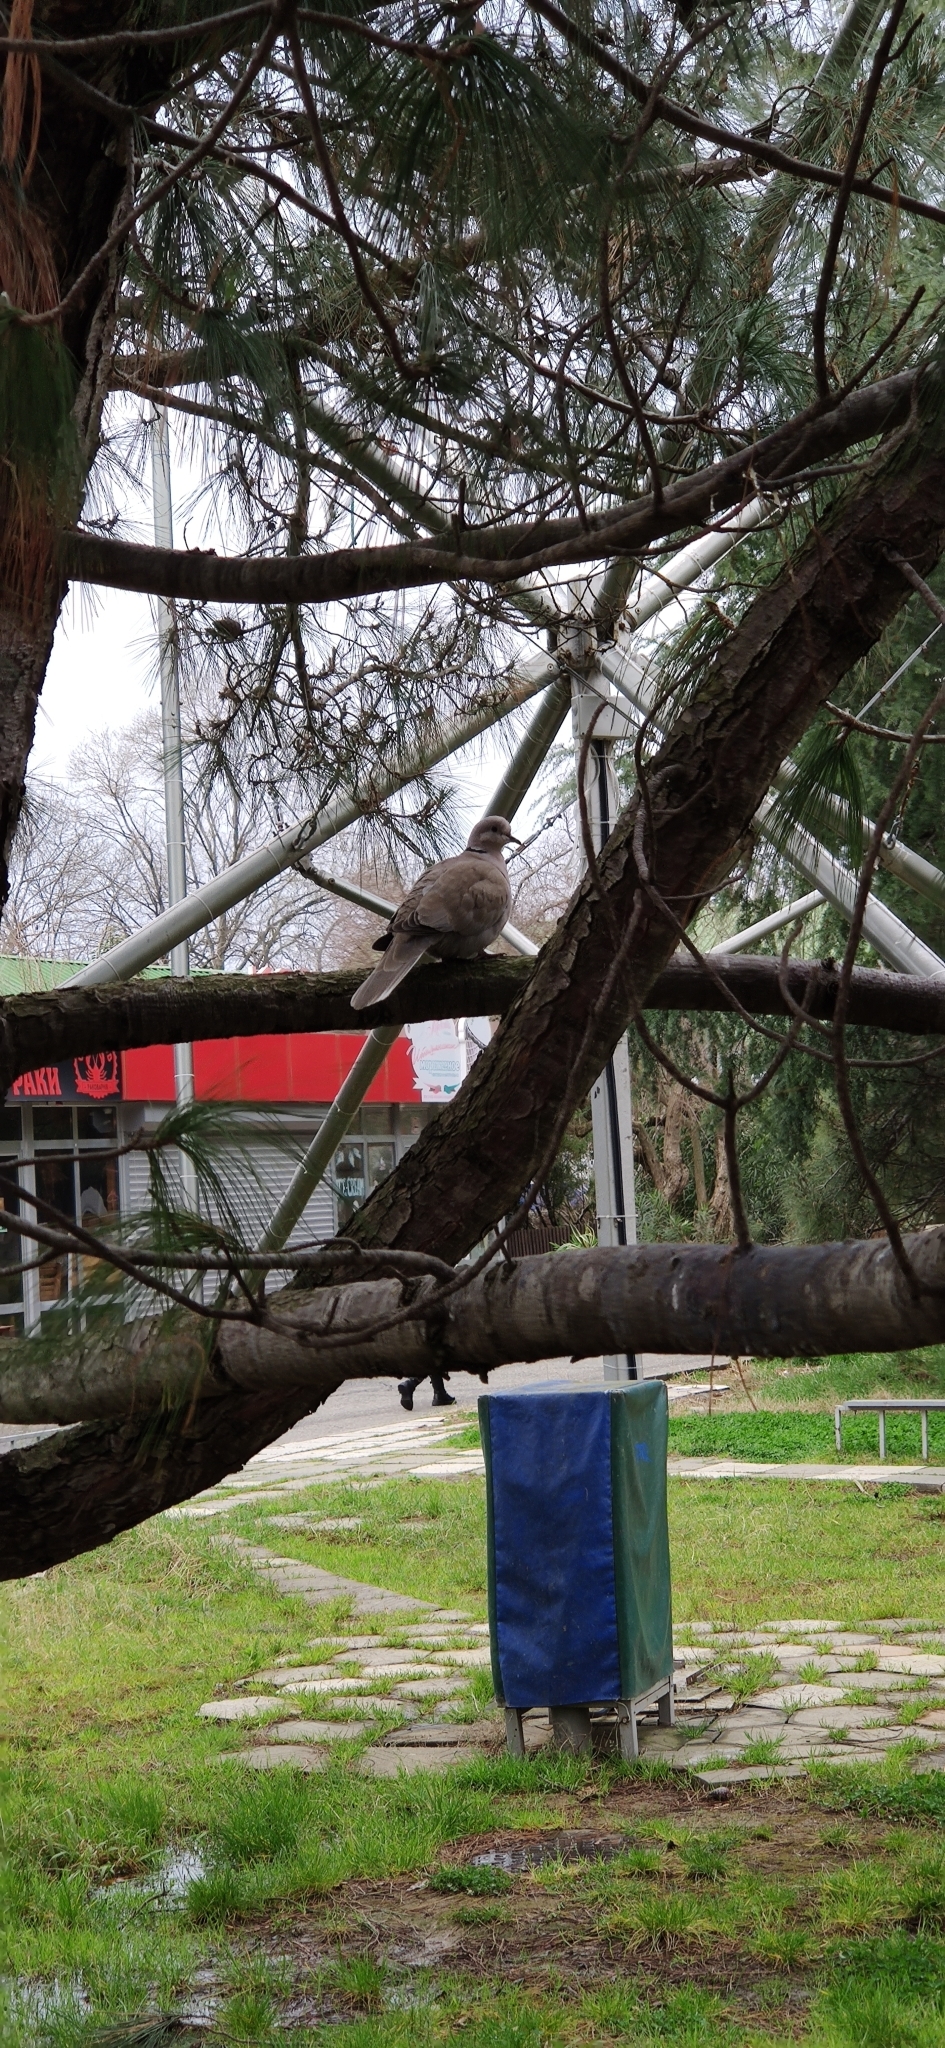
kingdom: Animalia
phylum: Chordata
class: Aves
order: Columbiformes
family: Columbidae
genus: Streptopelia
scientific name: Streptopelia decaocto
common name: Eurasian collared dove
